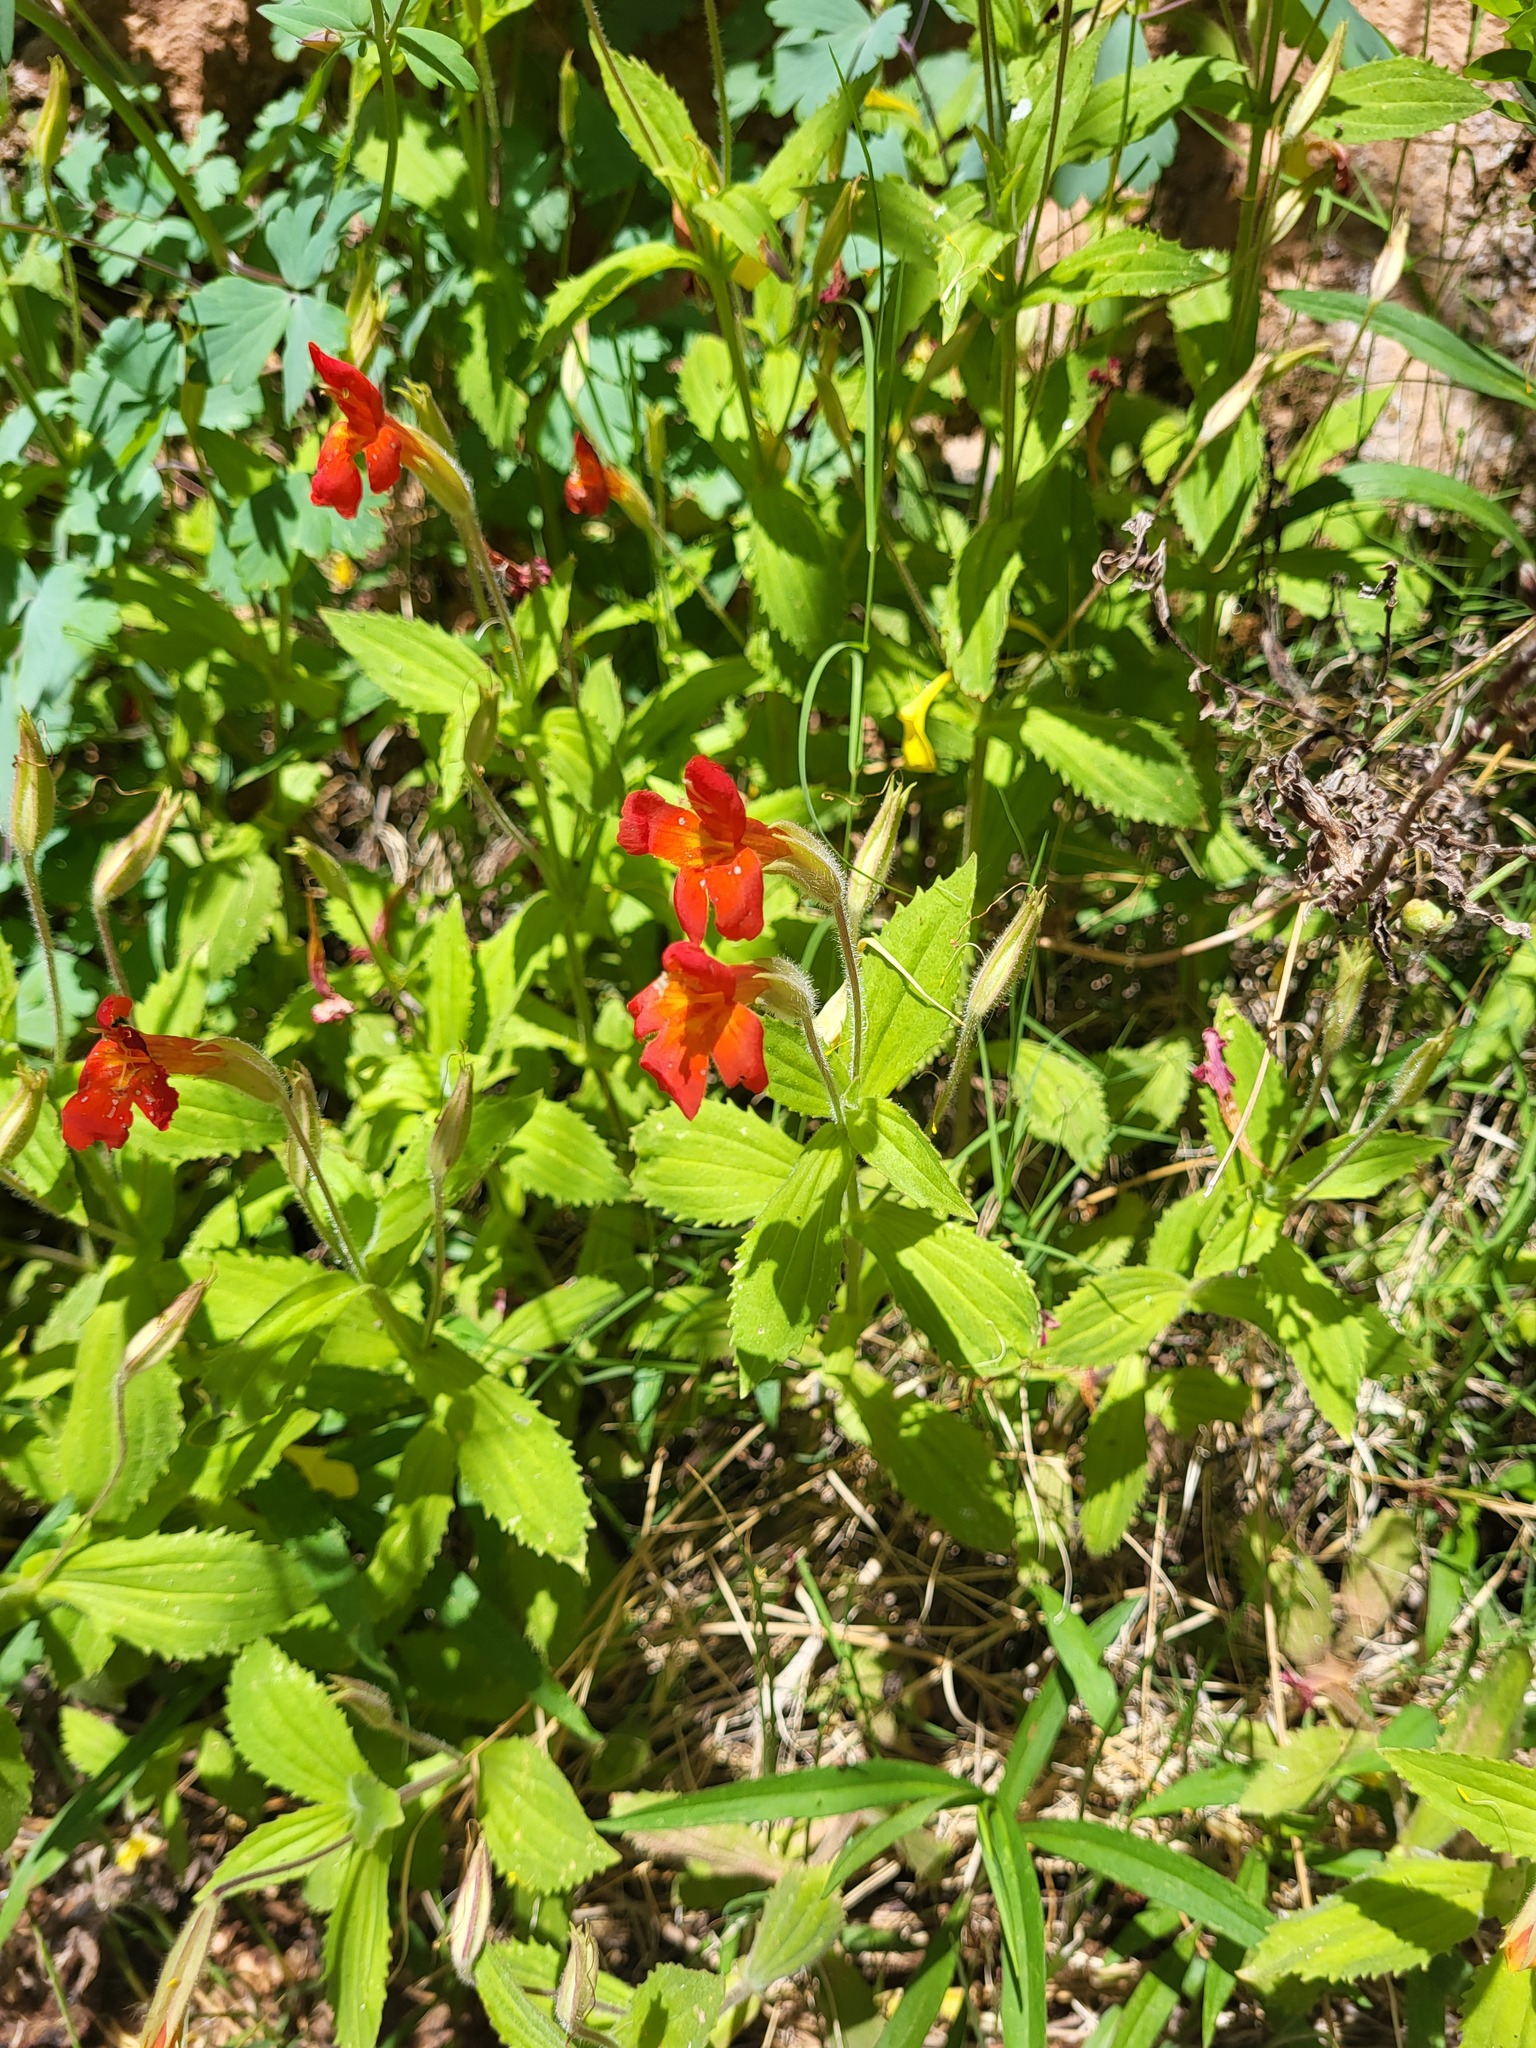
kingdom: Plantae
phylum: Tracheophyta
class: Magnoliopsida
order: Lamiales
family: Phrymaceae
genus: Erythranthe
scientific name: Erythranthe verbenacea
